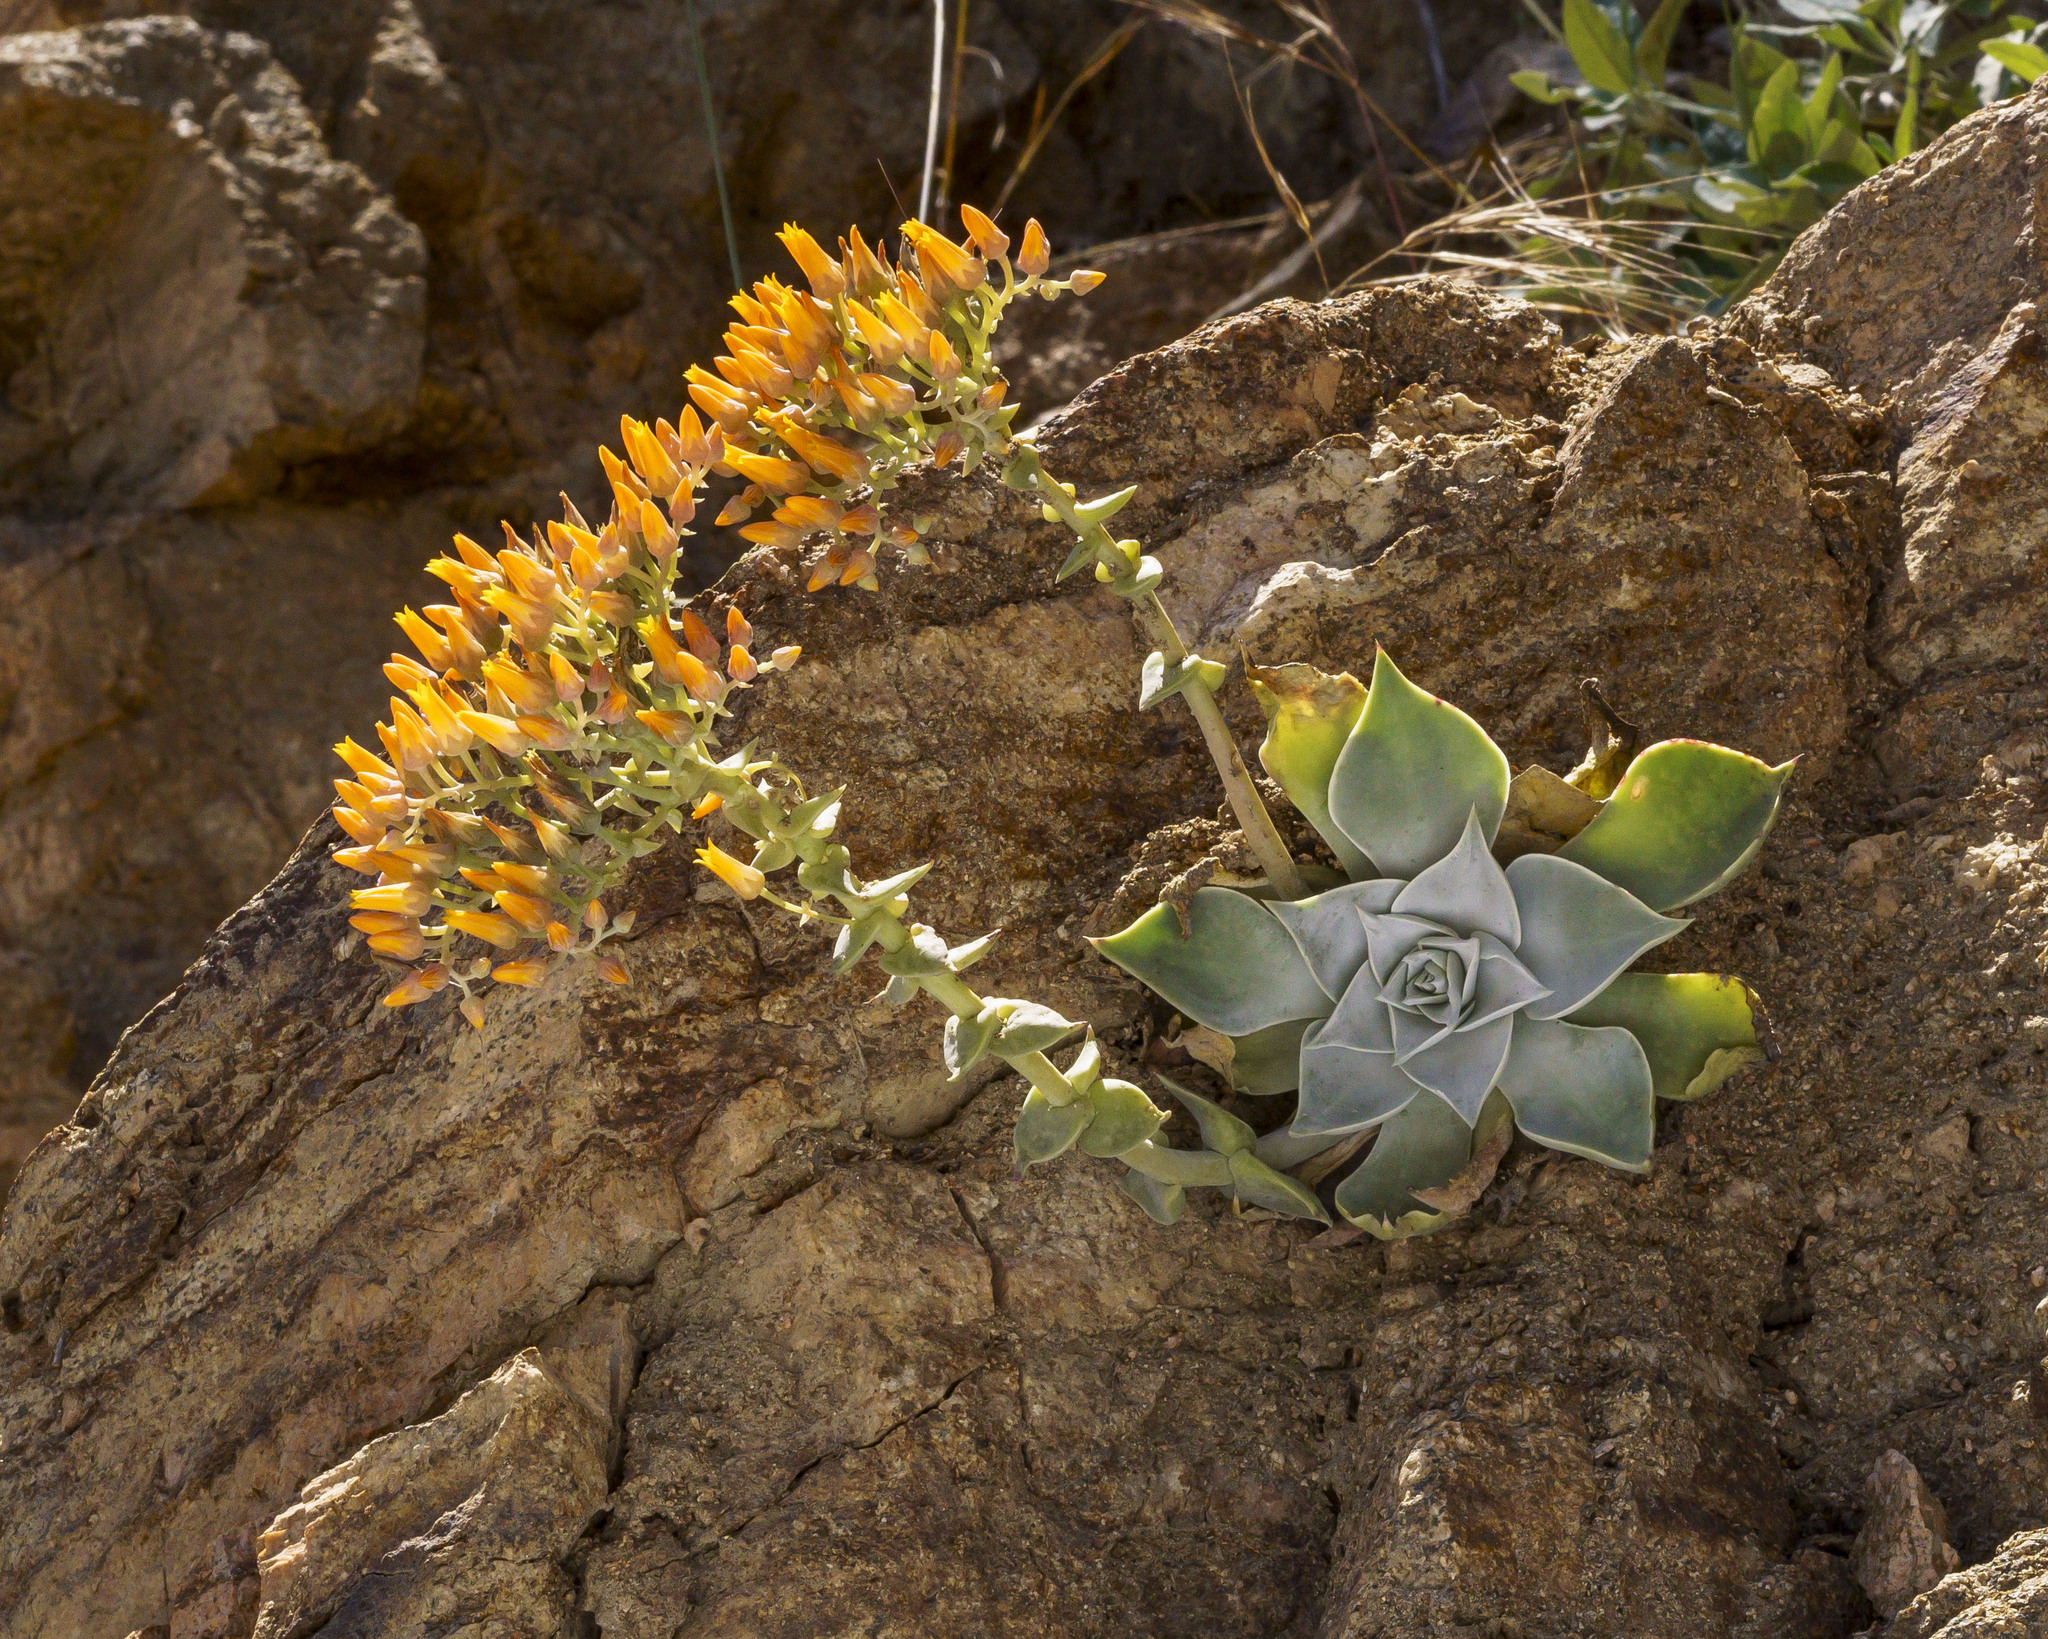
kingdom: Plantae
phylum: Tracheophyta
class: Magnoliopsida
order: Saxifragales
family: Crassulaceae
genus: Dudleya
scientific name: Dudleya cymosa
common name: Canyon dudleya
